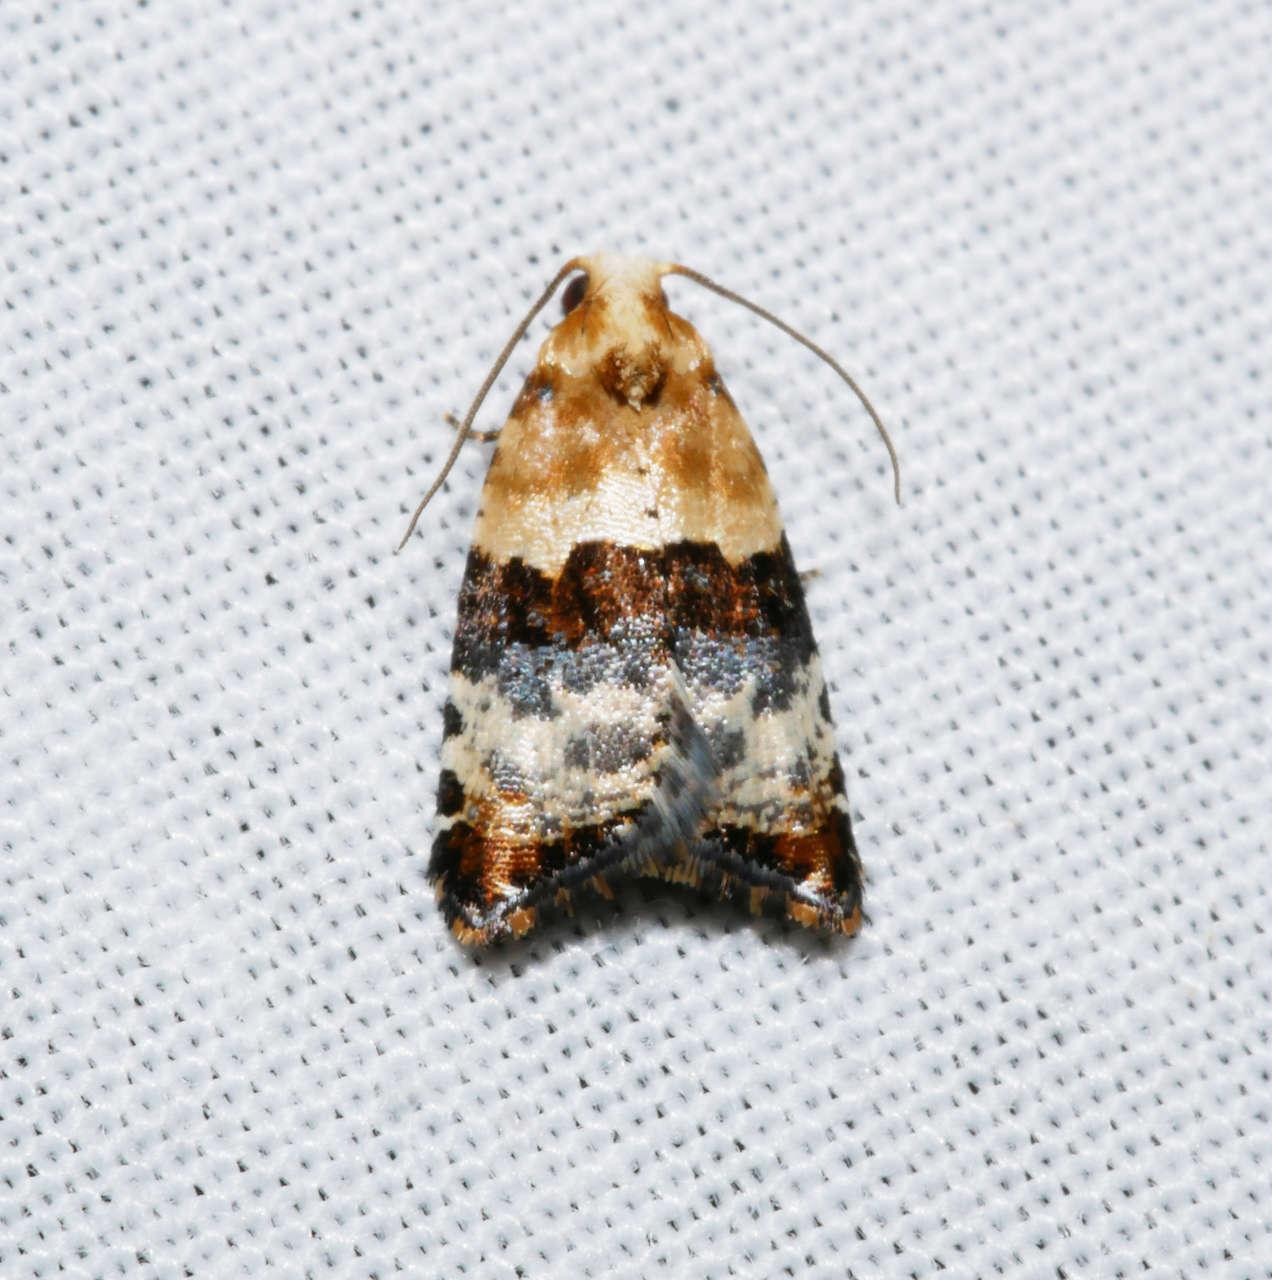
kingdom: Animalia
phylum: Arthropoda
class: Insecta
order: Lepidoptera
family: Tortricidae
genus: Authomaema
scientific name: Authomaema pentacosma
